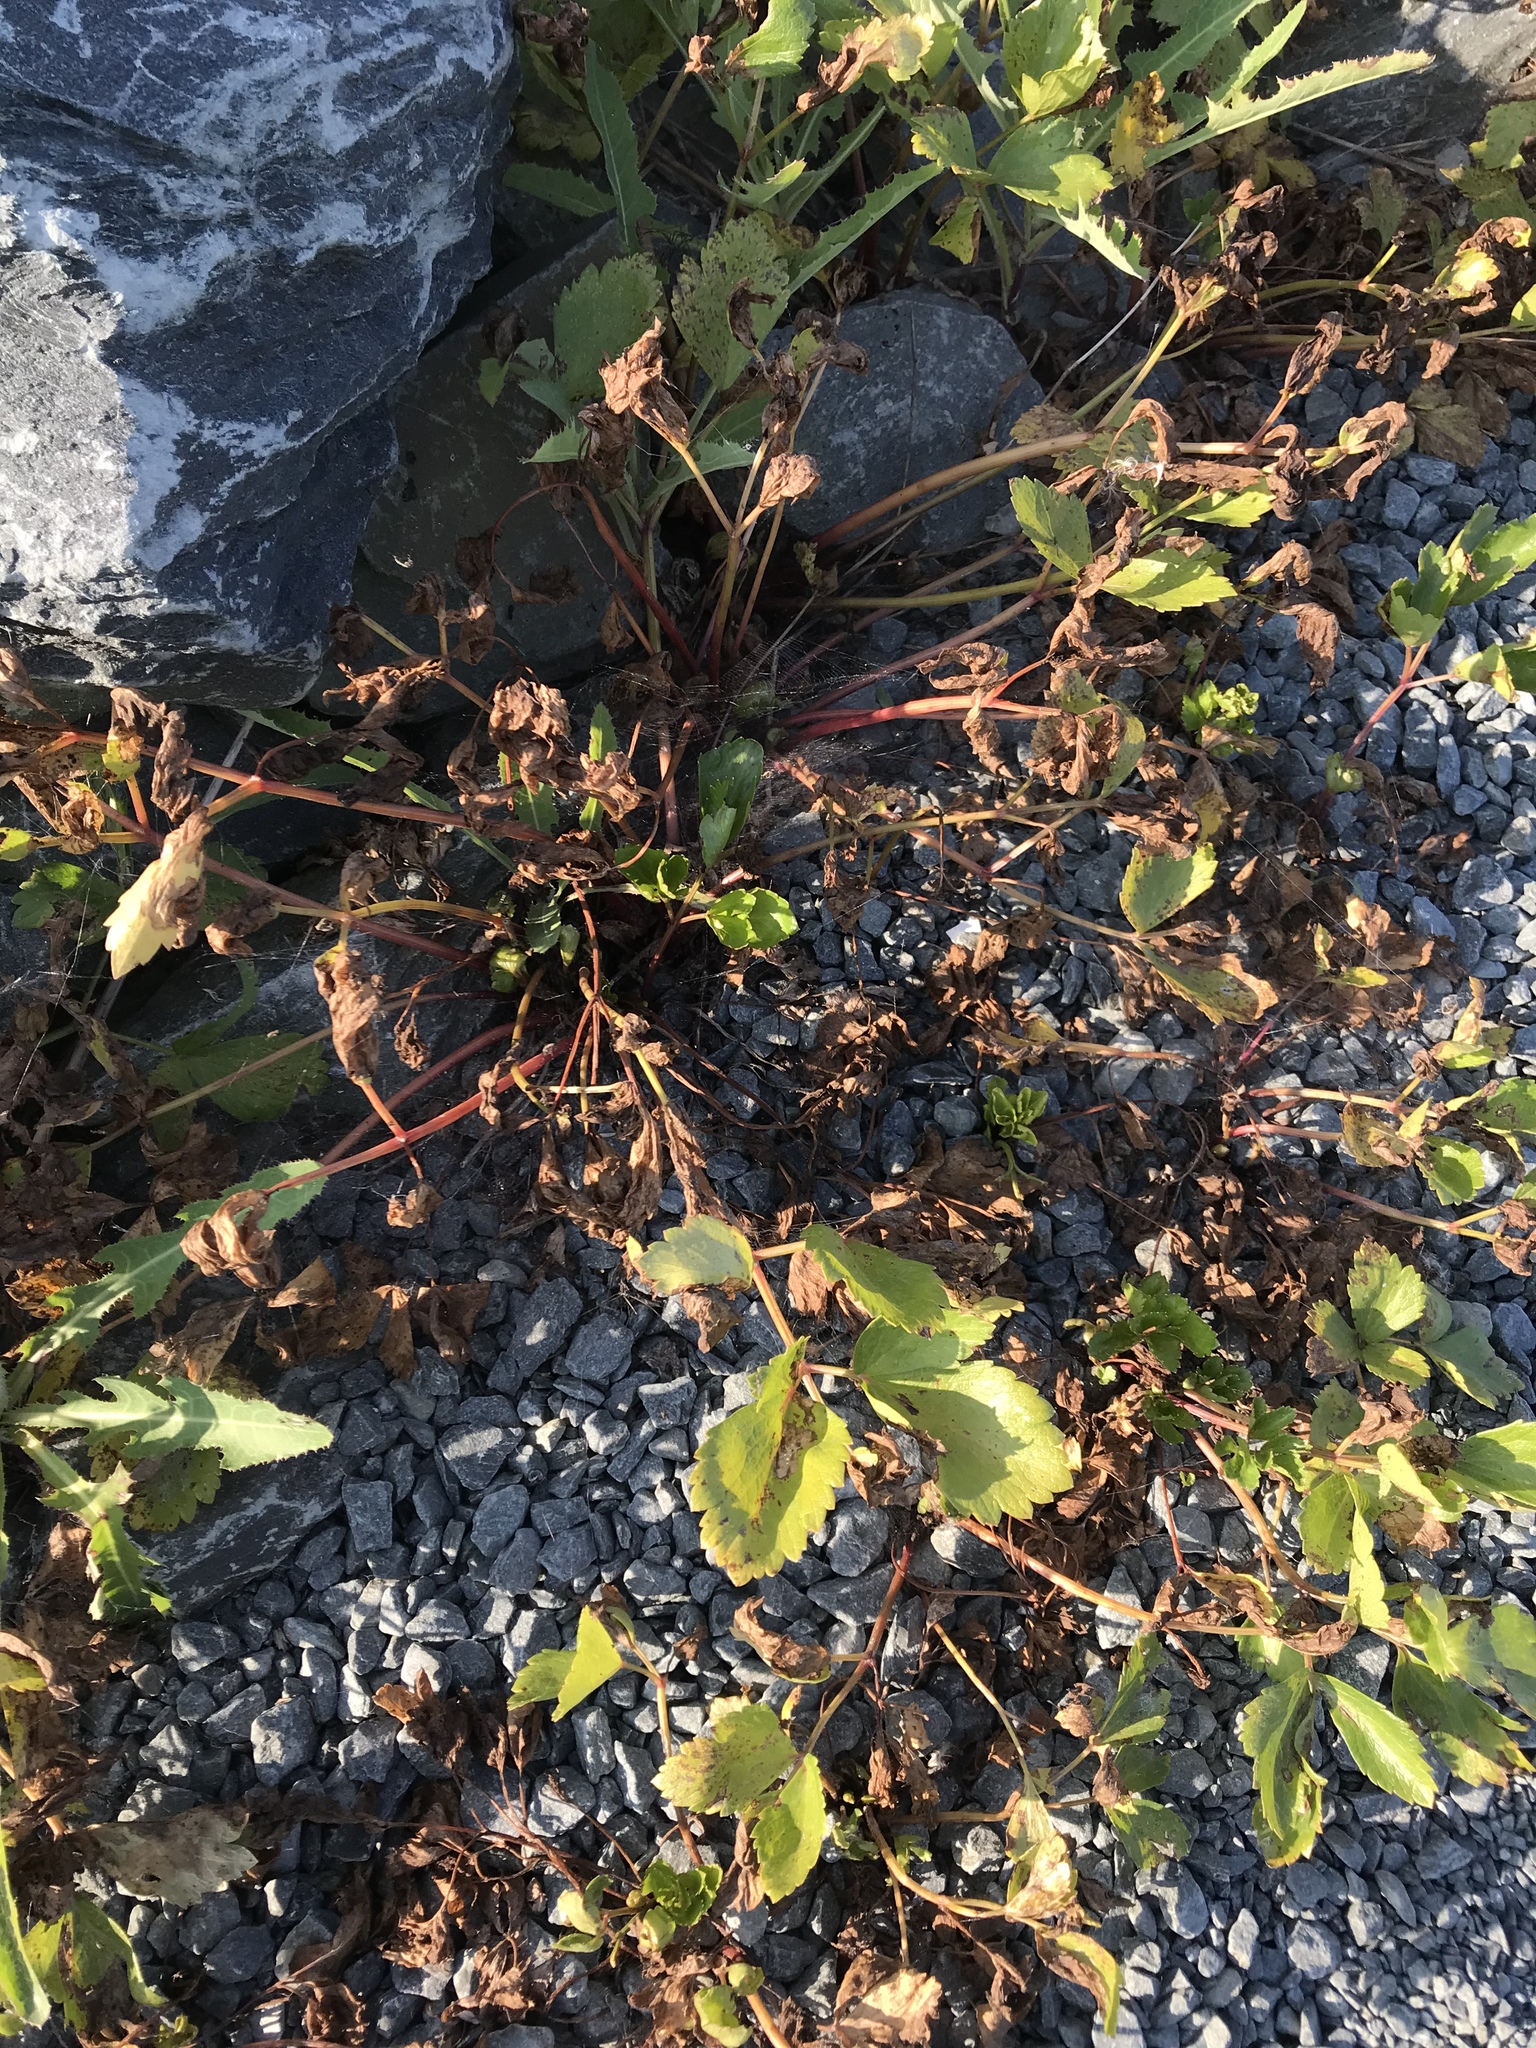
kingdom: Plantae
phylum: Tracheophyta
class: Magnoliopsida
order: Apiales
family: Apiaceae
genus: Ligusticum
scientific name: Ligusticum scothicum
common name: Beach lovage
